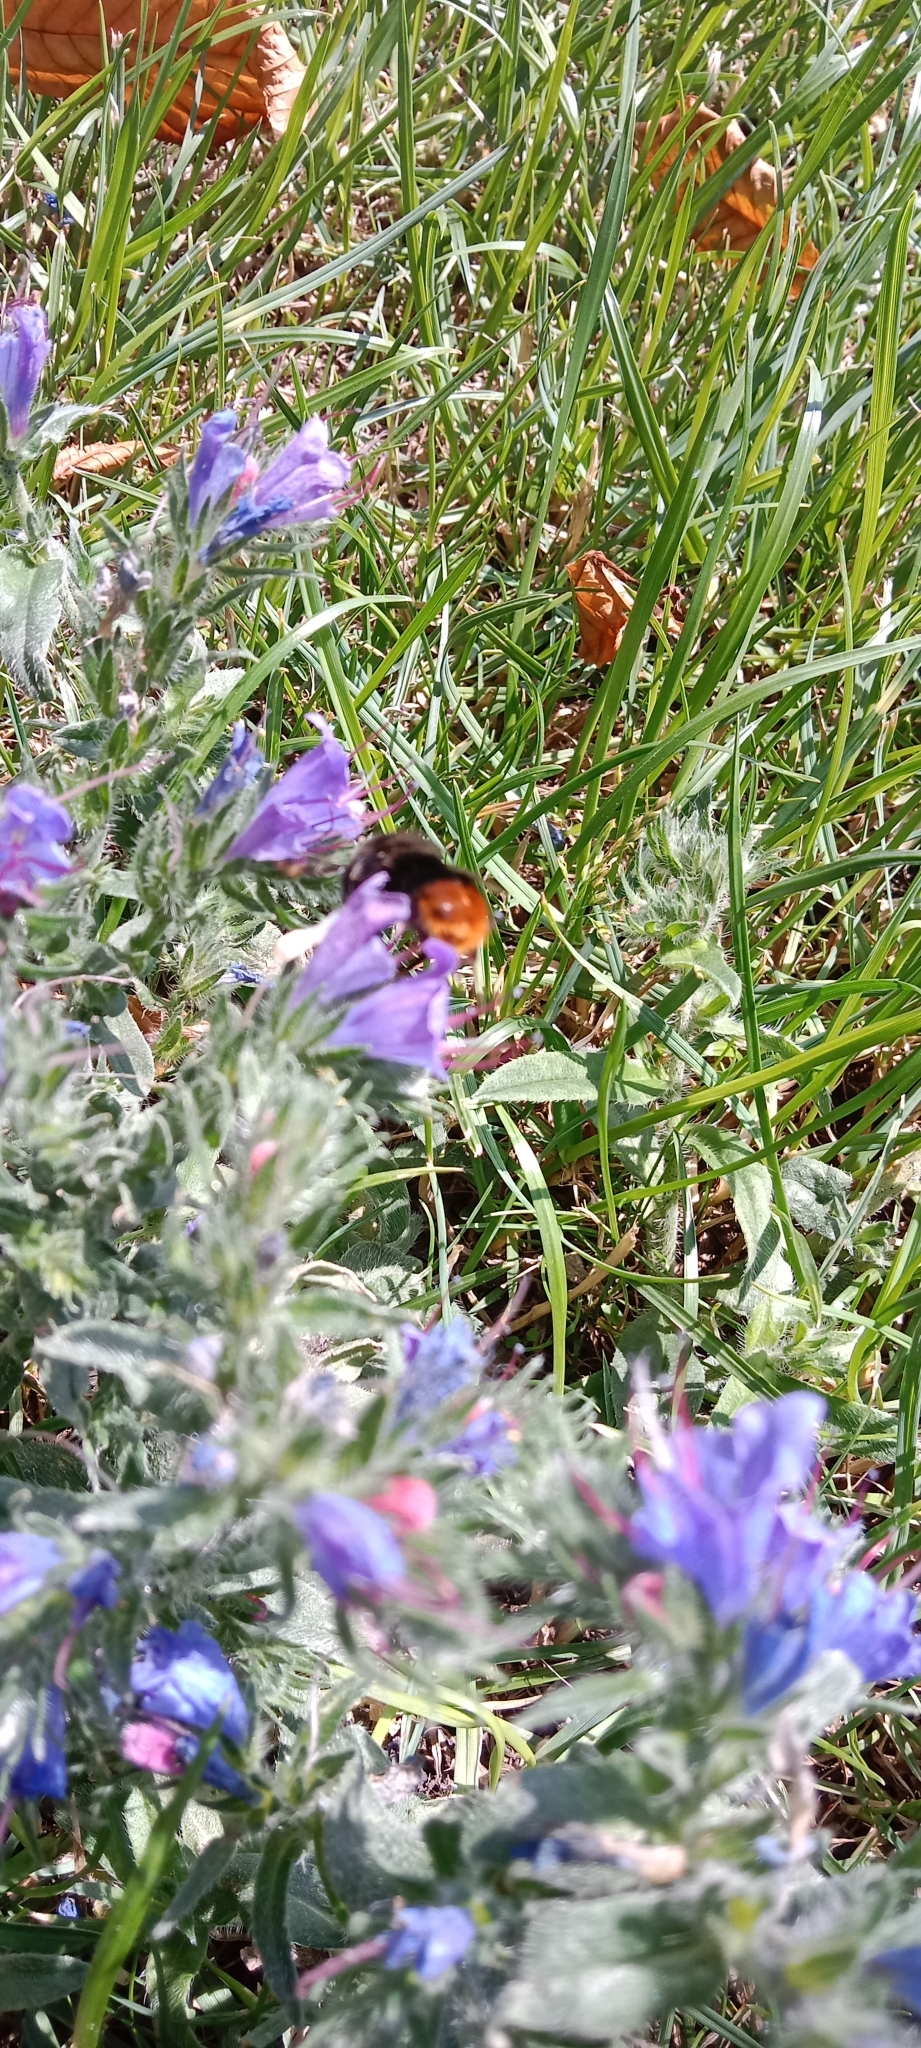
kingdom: Animalia
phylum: Arthropoda
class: Insecta
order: Hymenoptera
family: Apidae
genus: Bombus
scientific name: Bombus lapidarius
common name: Large red-tailed humble-bee
